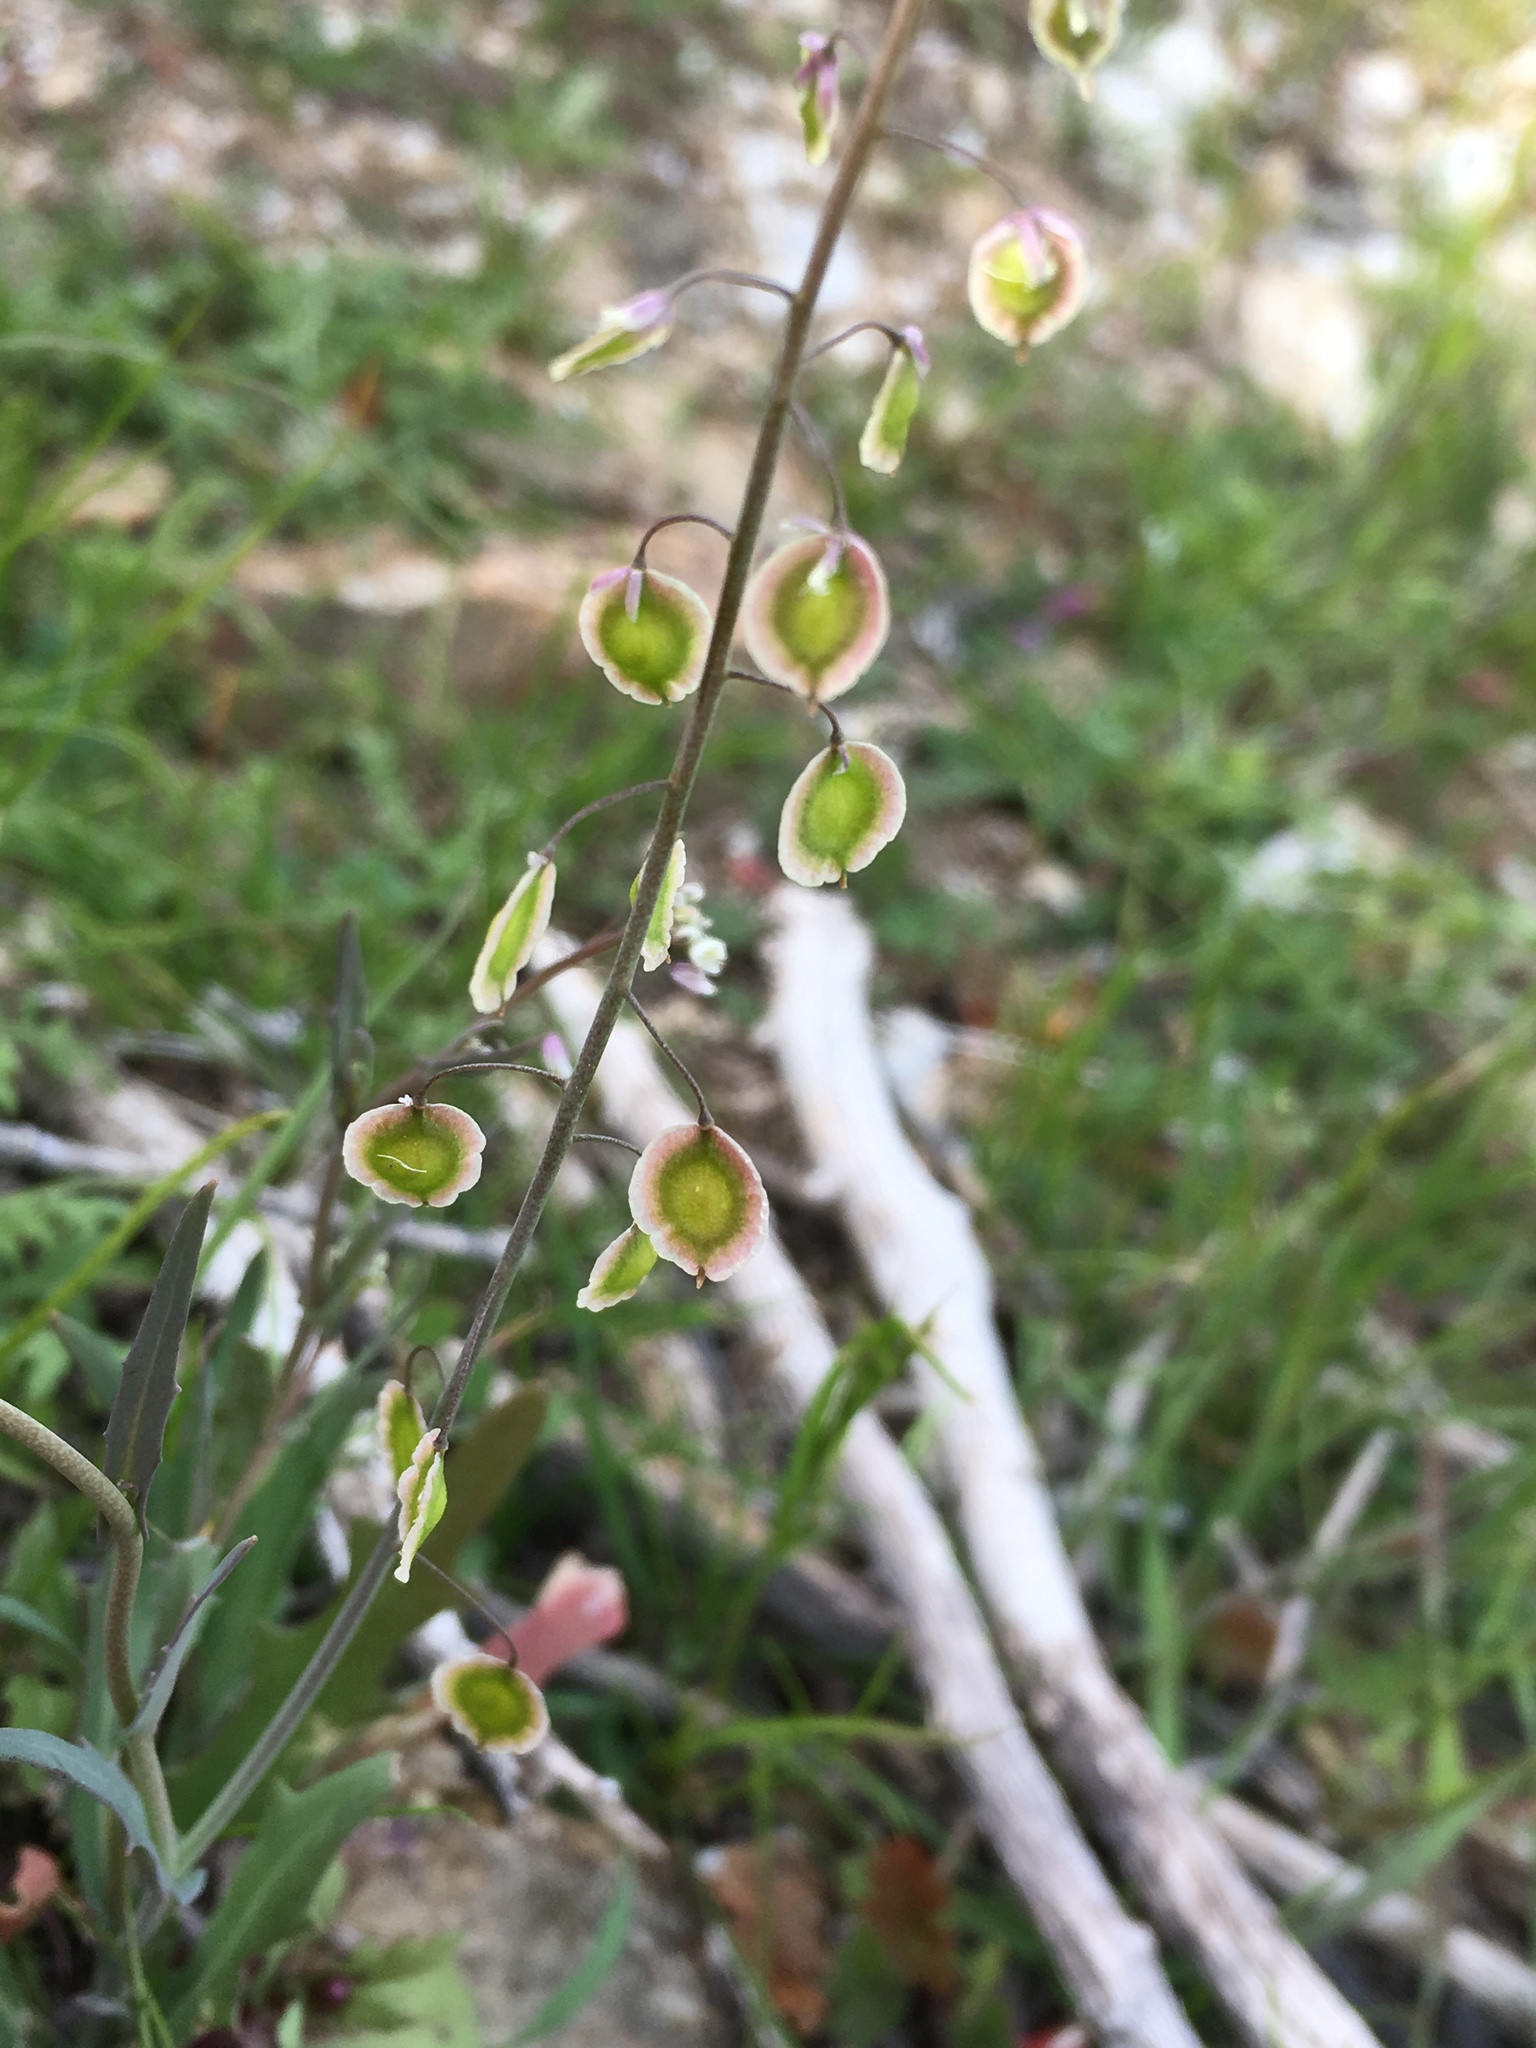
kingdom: Plantae
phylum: Tracheophyta
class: Magnoliopsida
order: Brassicales
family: Brassicaceae
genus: Thysanocarpus
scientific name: Thysanocarpus curvipes
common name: Sand fringepod
